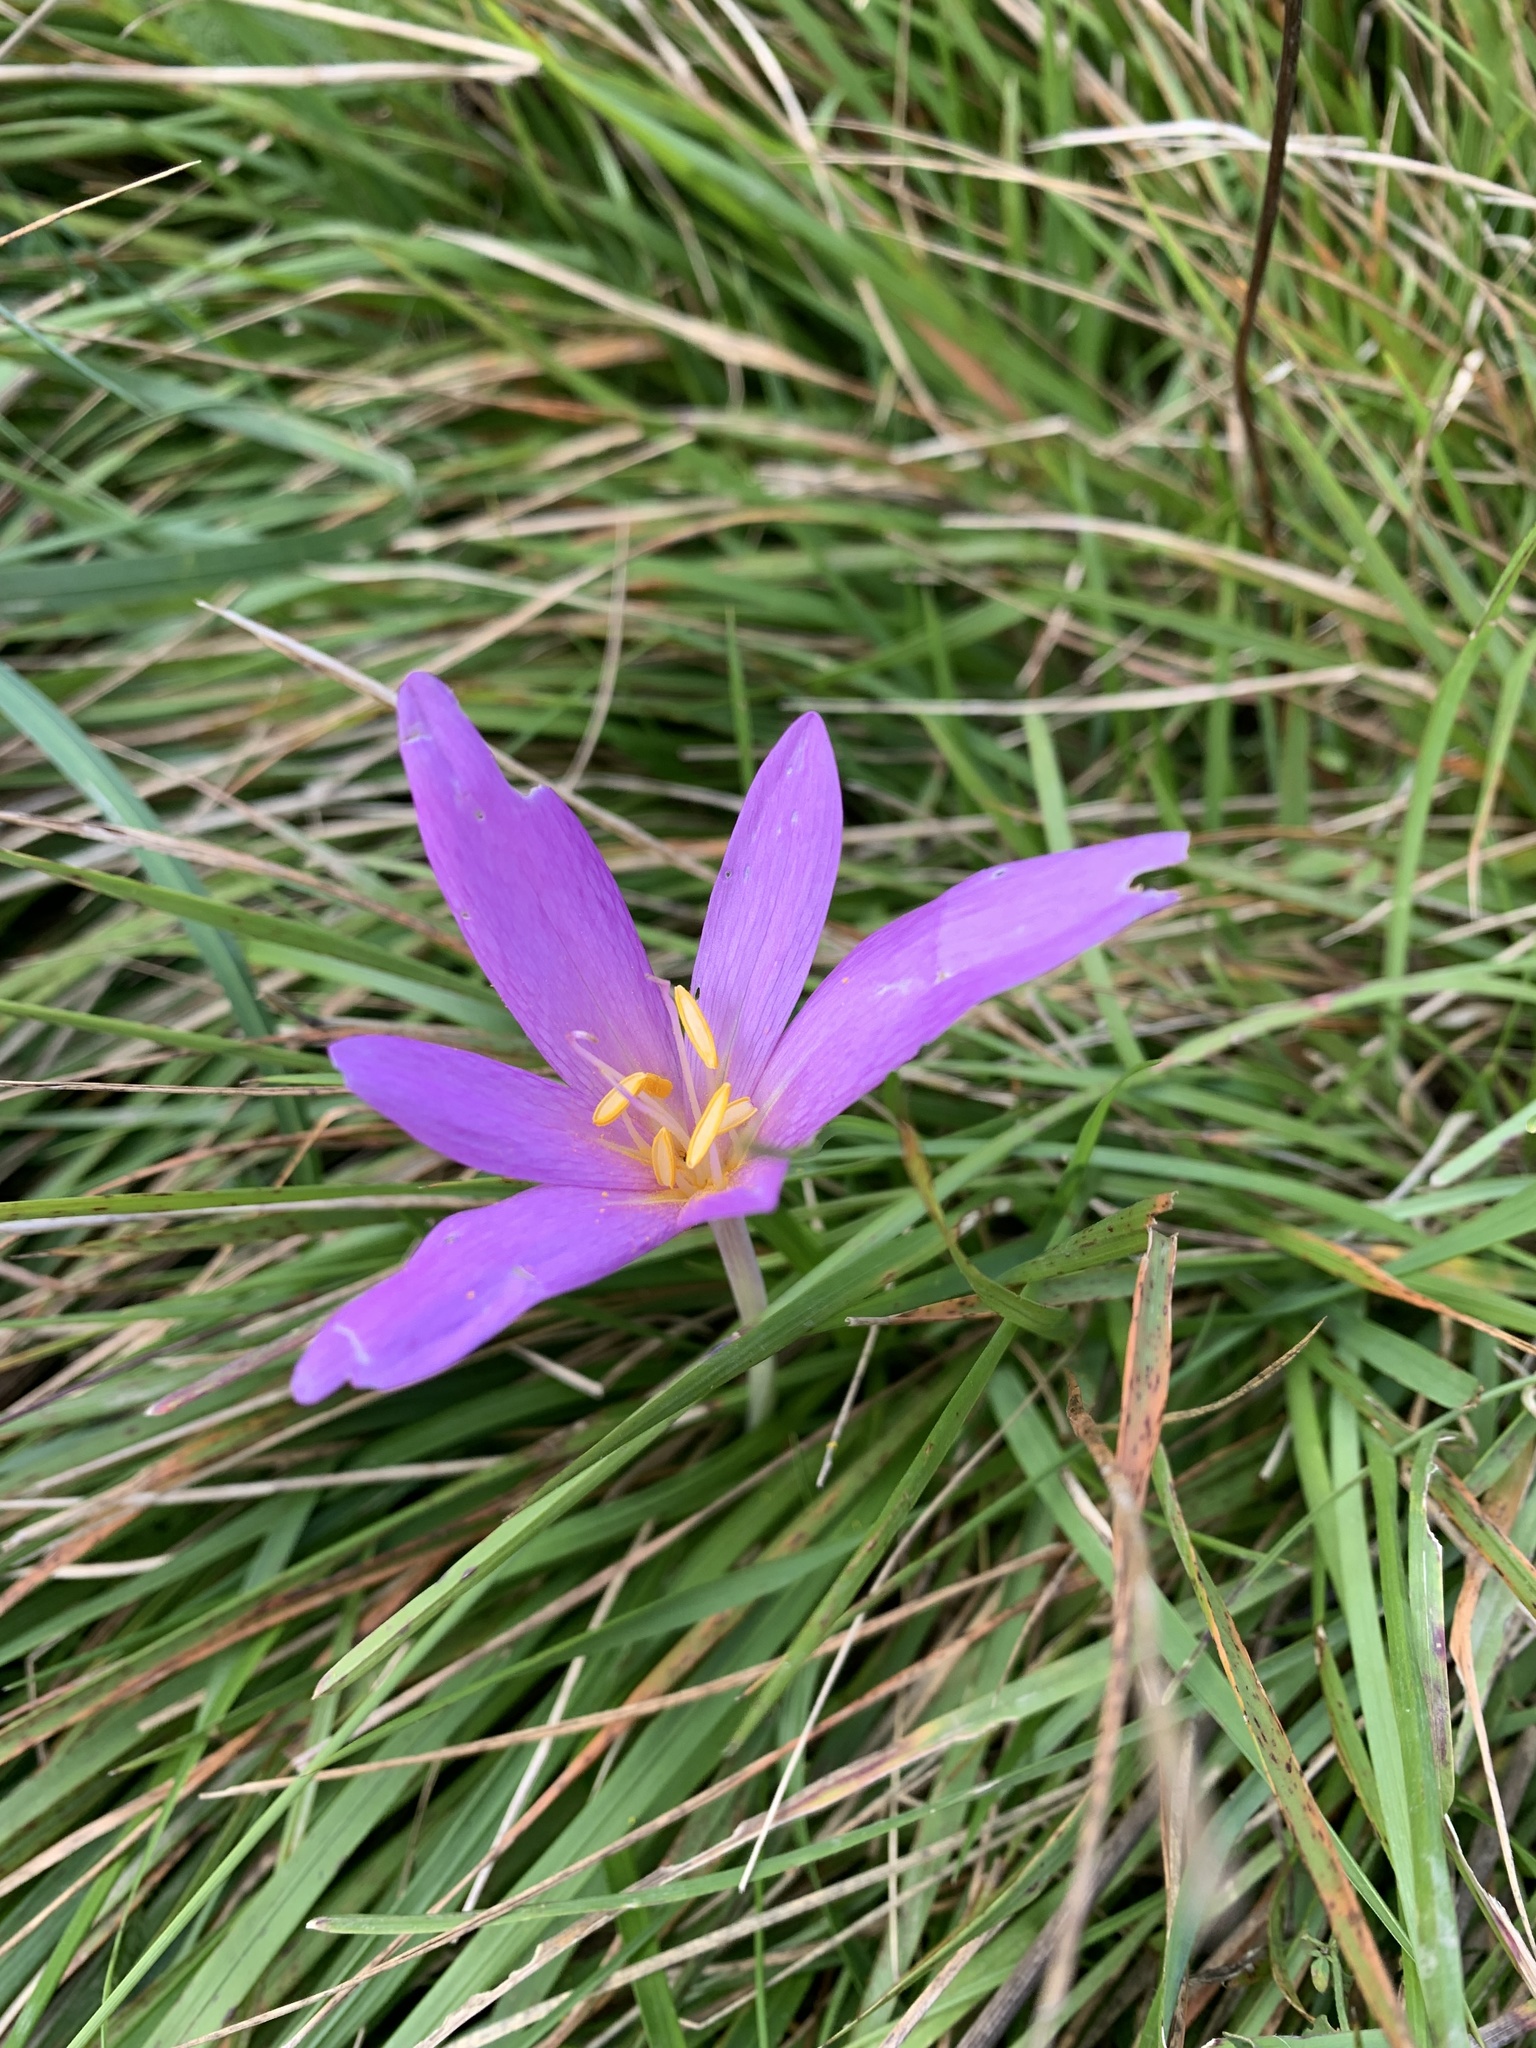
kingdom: Plantae
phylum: Tracheophyta
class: Liliopsida
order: Liliales
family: Colchicaceae
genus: Colchicum
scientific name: Colchicum autumnale
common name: Autumn crocus
